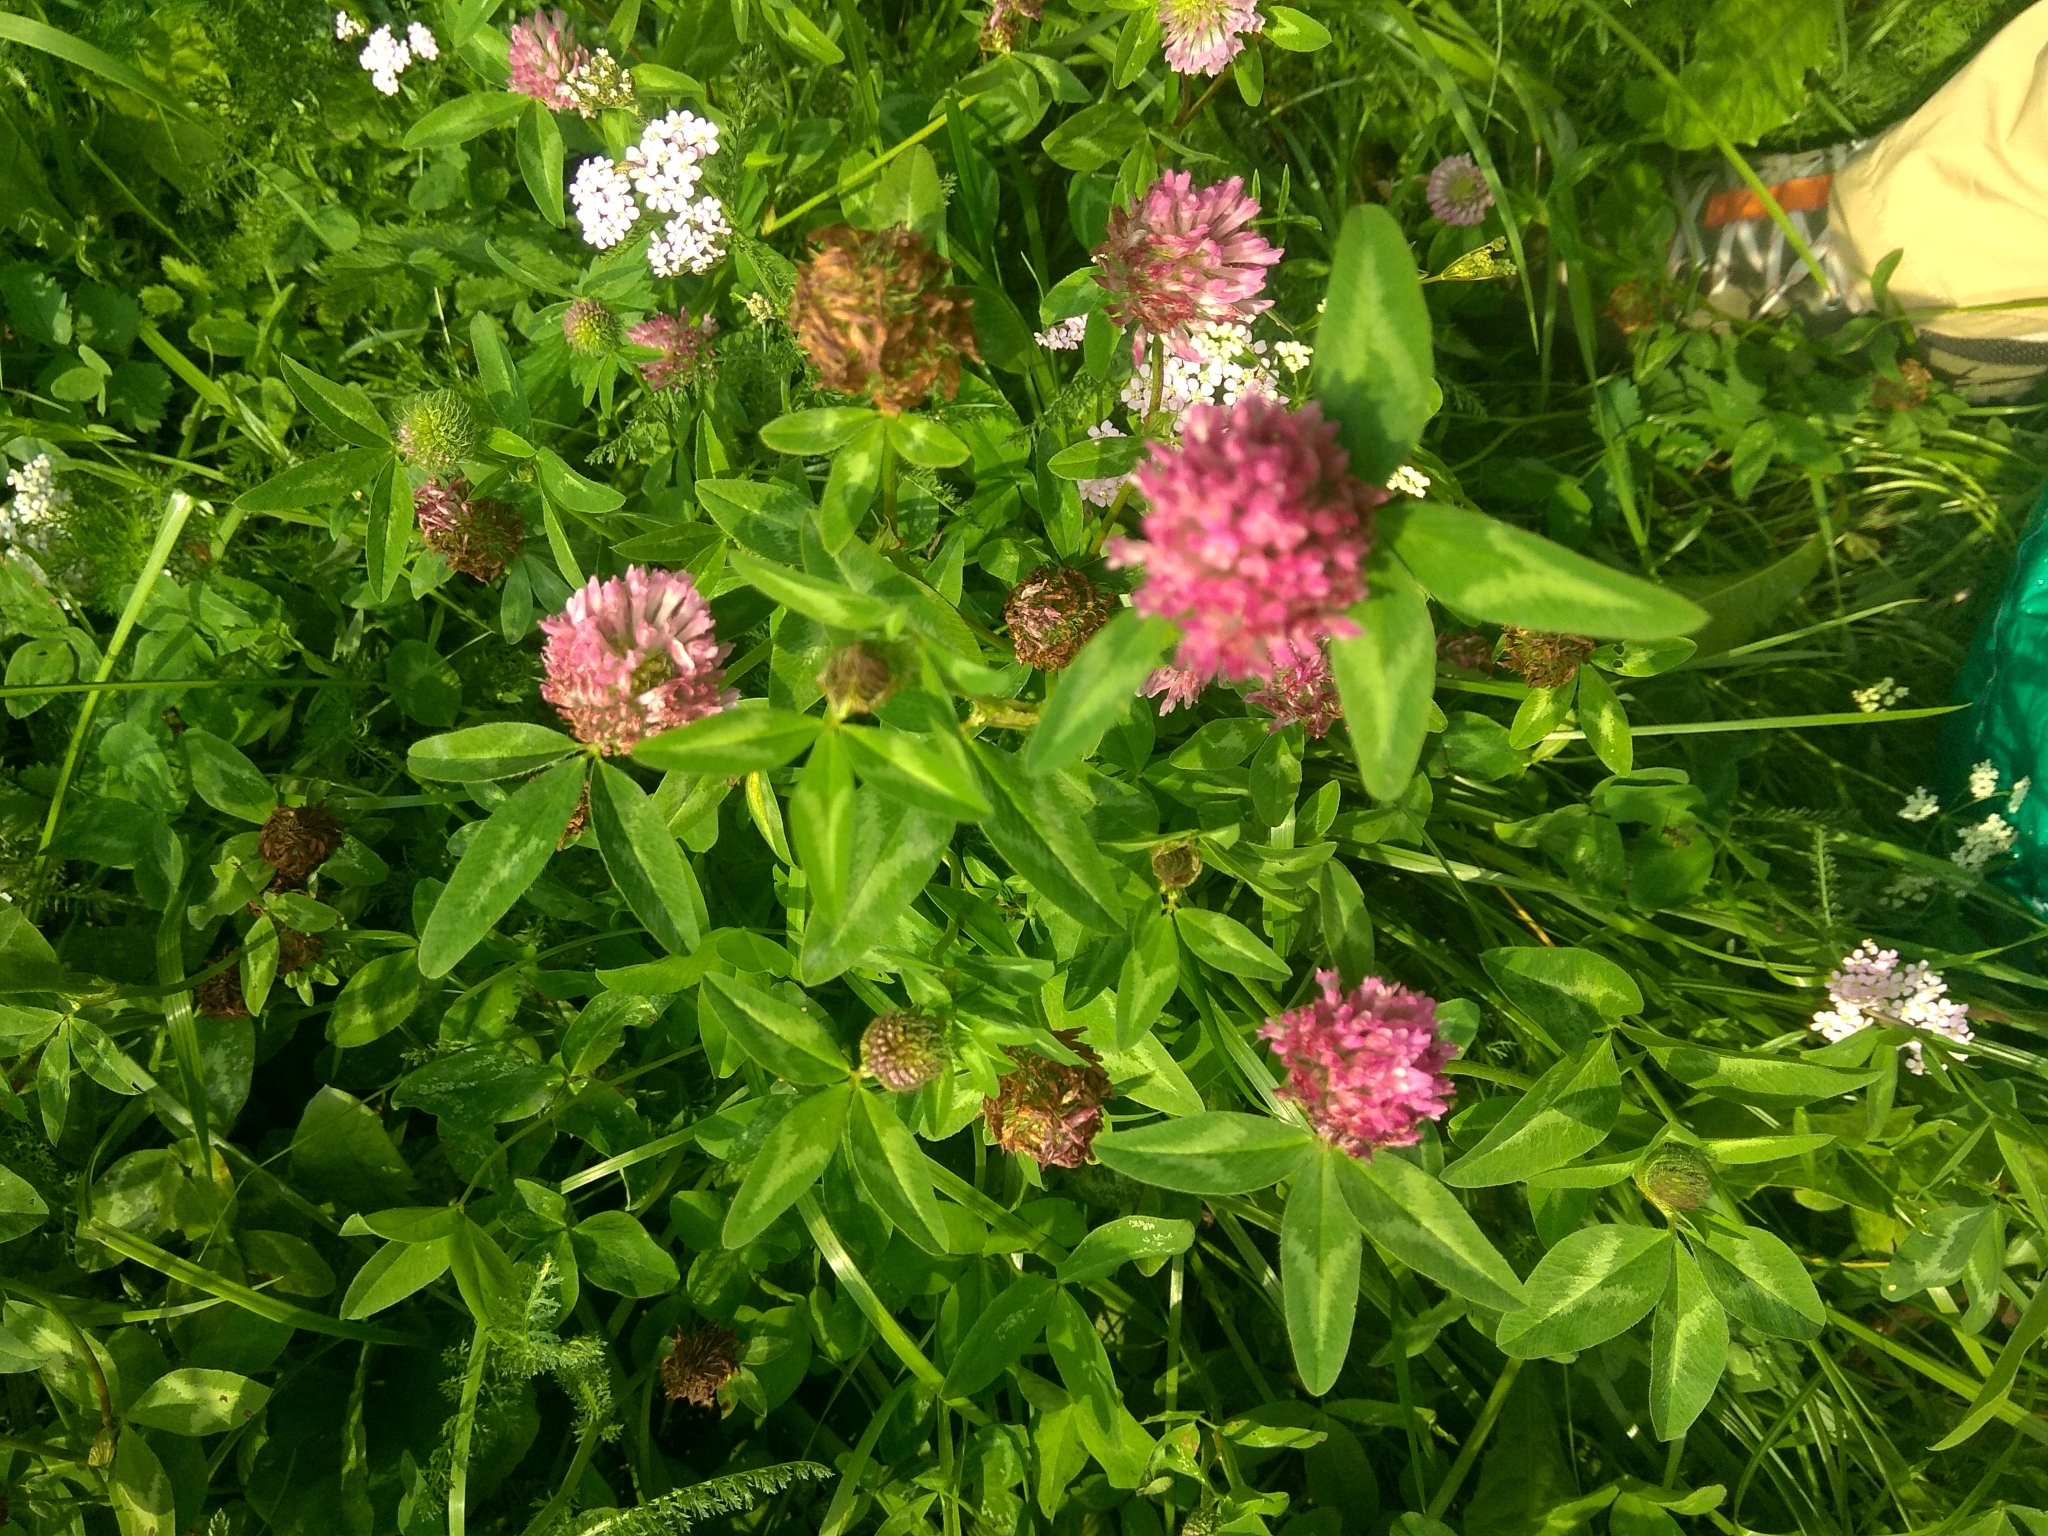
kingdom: Plantae
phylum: Tracheophyta
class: Magnoliopsida
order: Fabales
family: Fabaceae
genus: Trifolium
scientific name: Trifolium medium
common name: Zigzag clover
